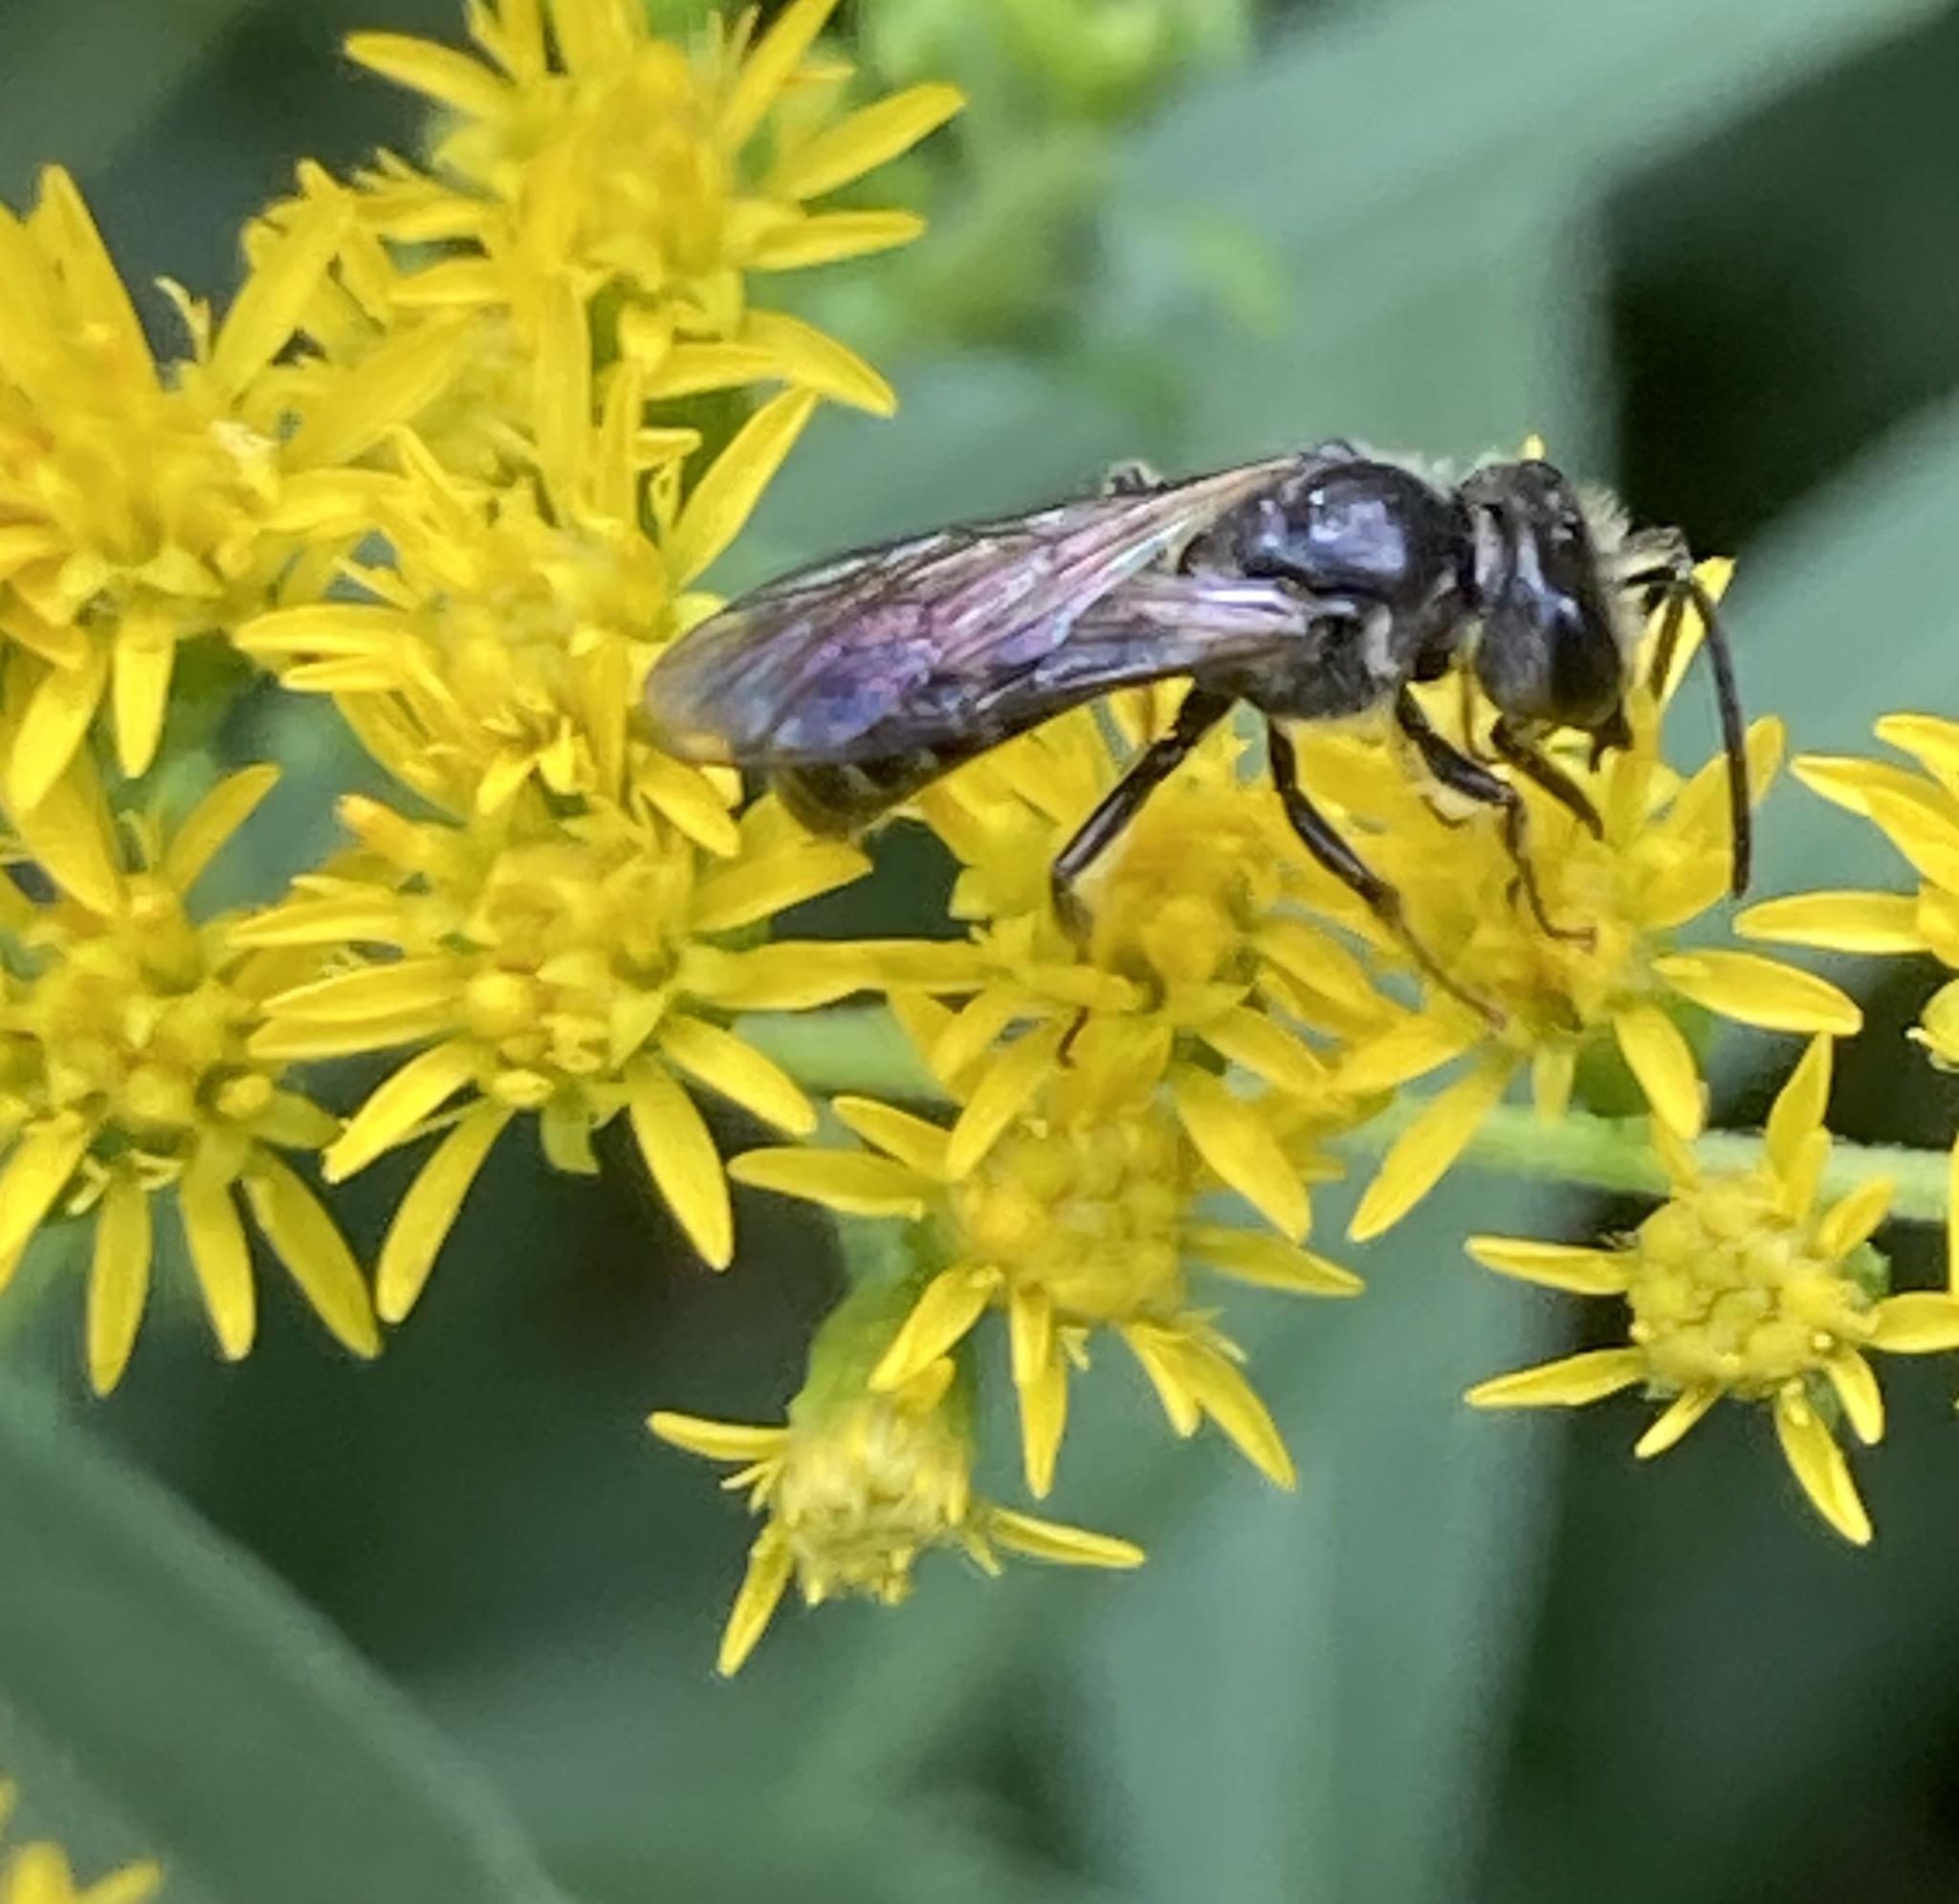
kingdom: Animalia
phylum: Arthropoda
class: Insecta
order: Hymenoptera
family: Halictidae
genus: Lasioglossum
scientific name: Lasioglossum
